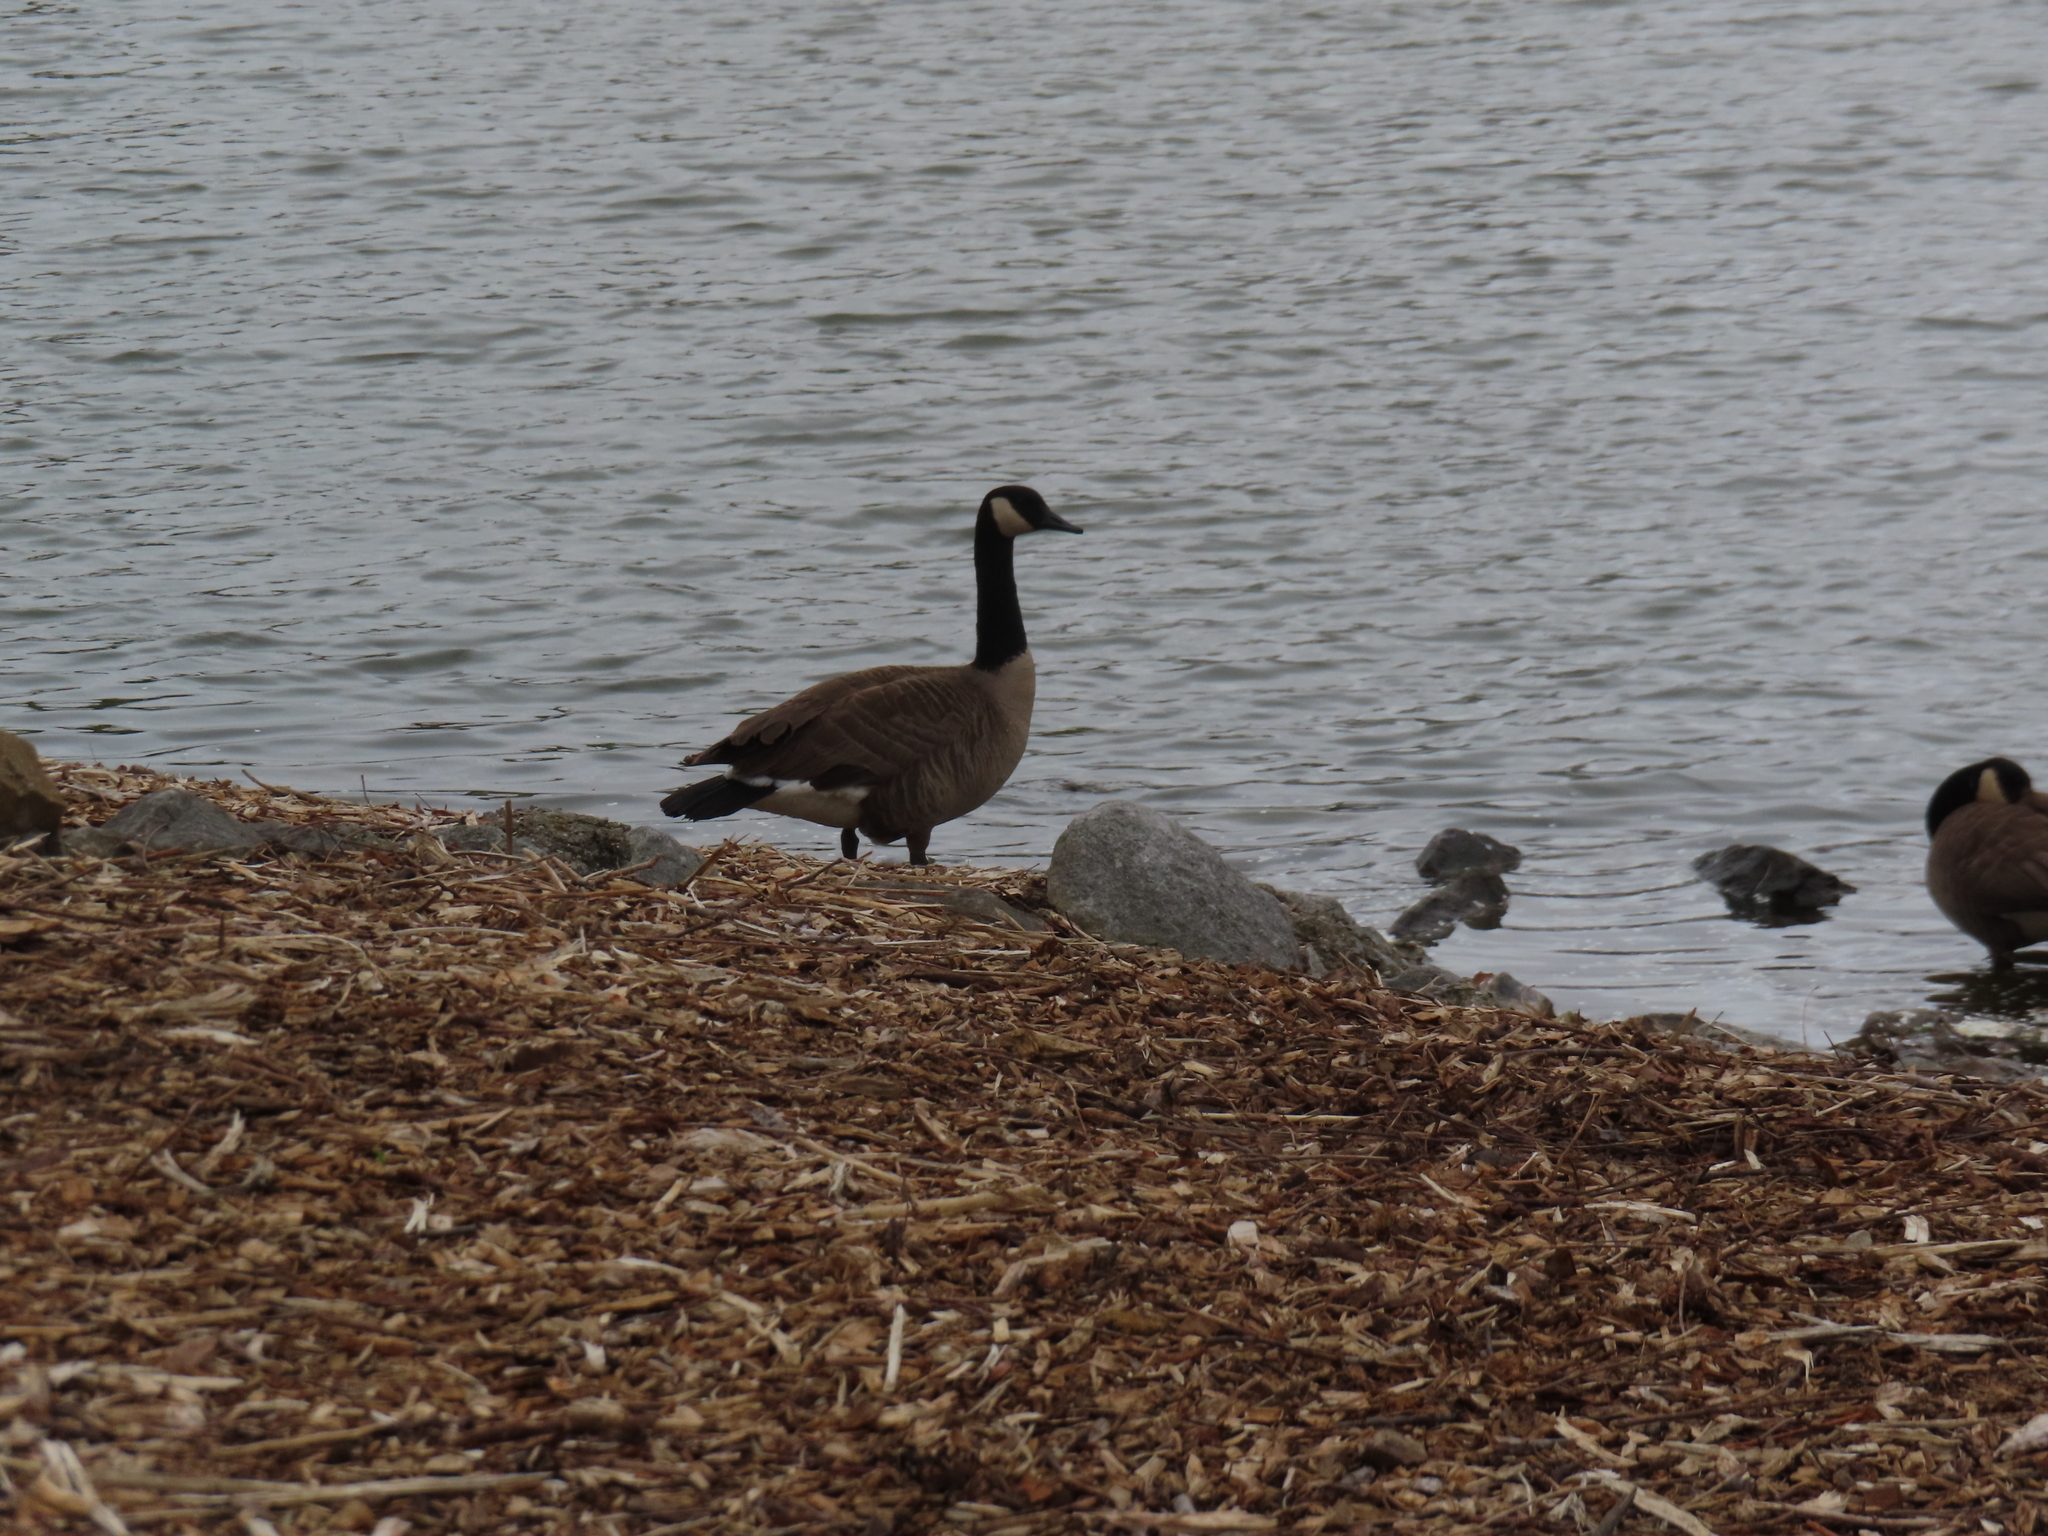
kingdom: Animalia
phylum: Chordata
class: Aves
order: Anseriformes
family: Anatidae
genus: Branta
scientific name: Branta canadensis
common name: Canada goose
